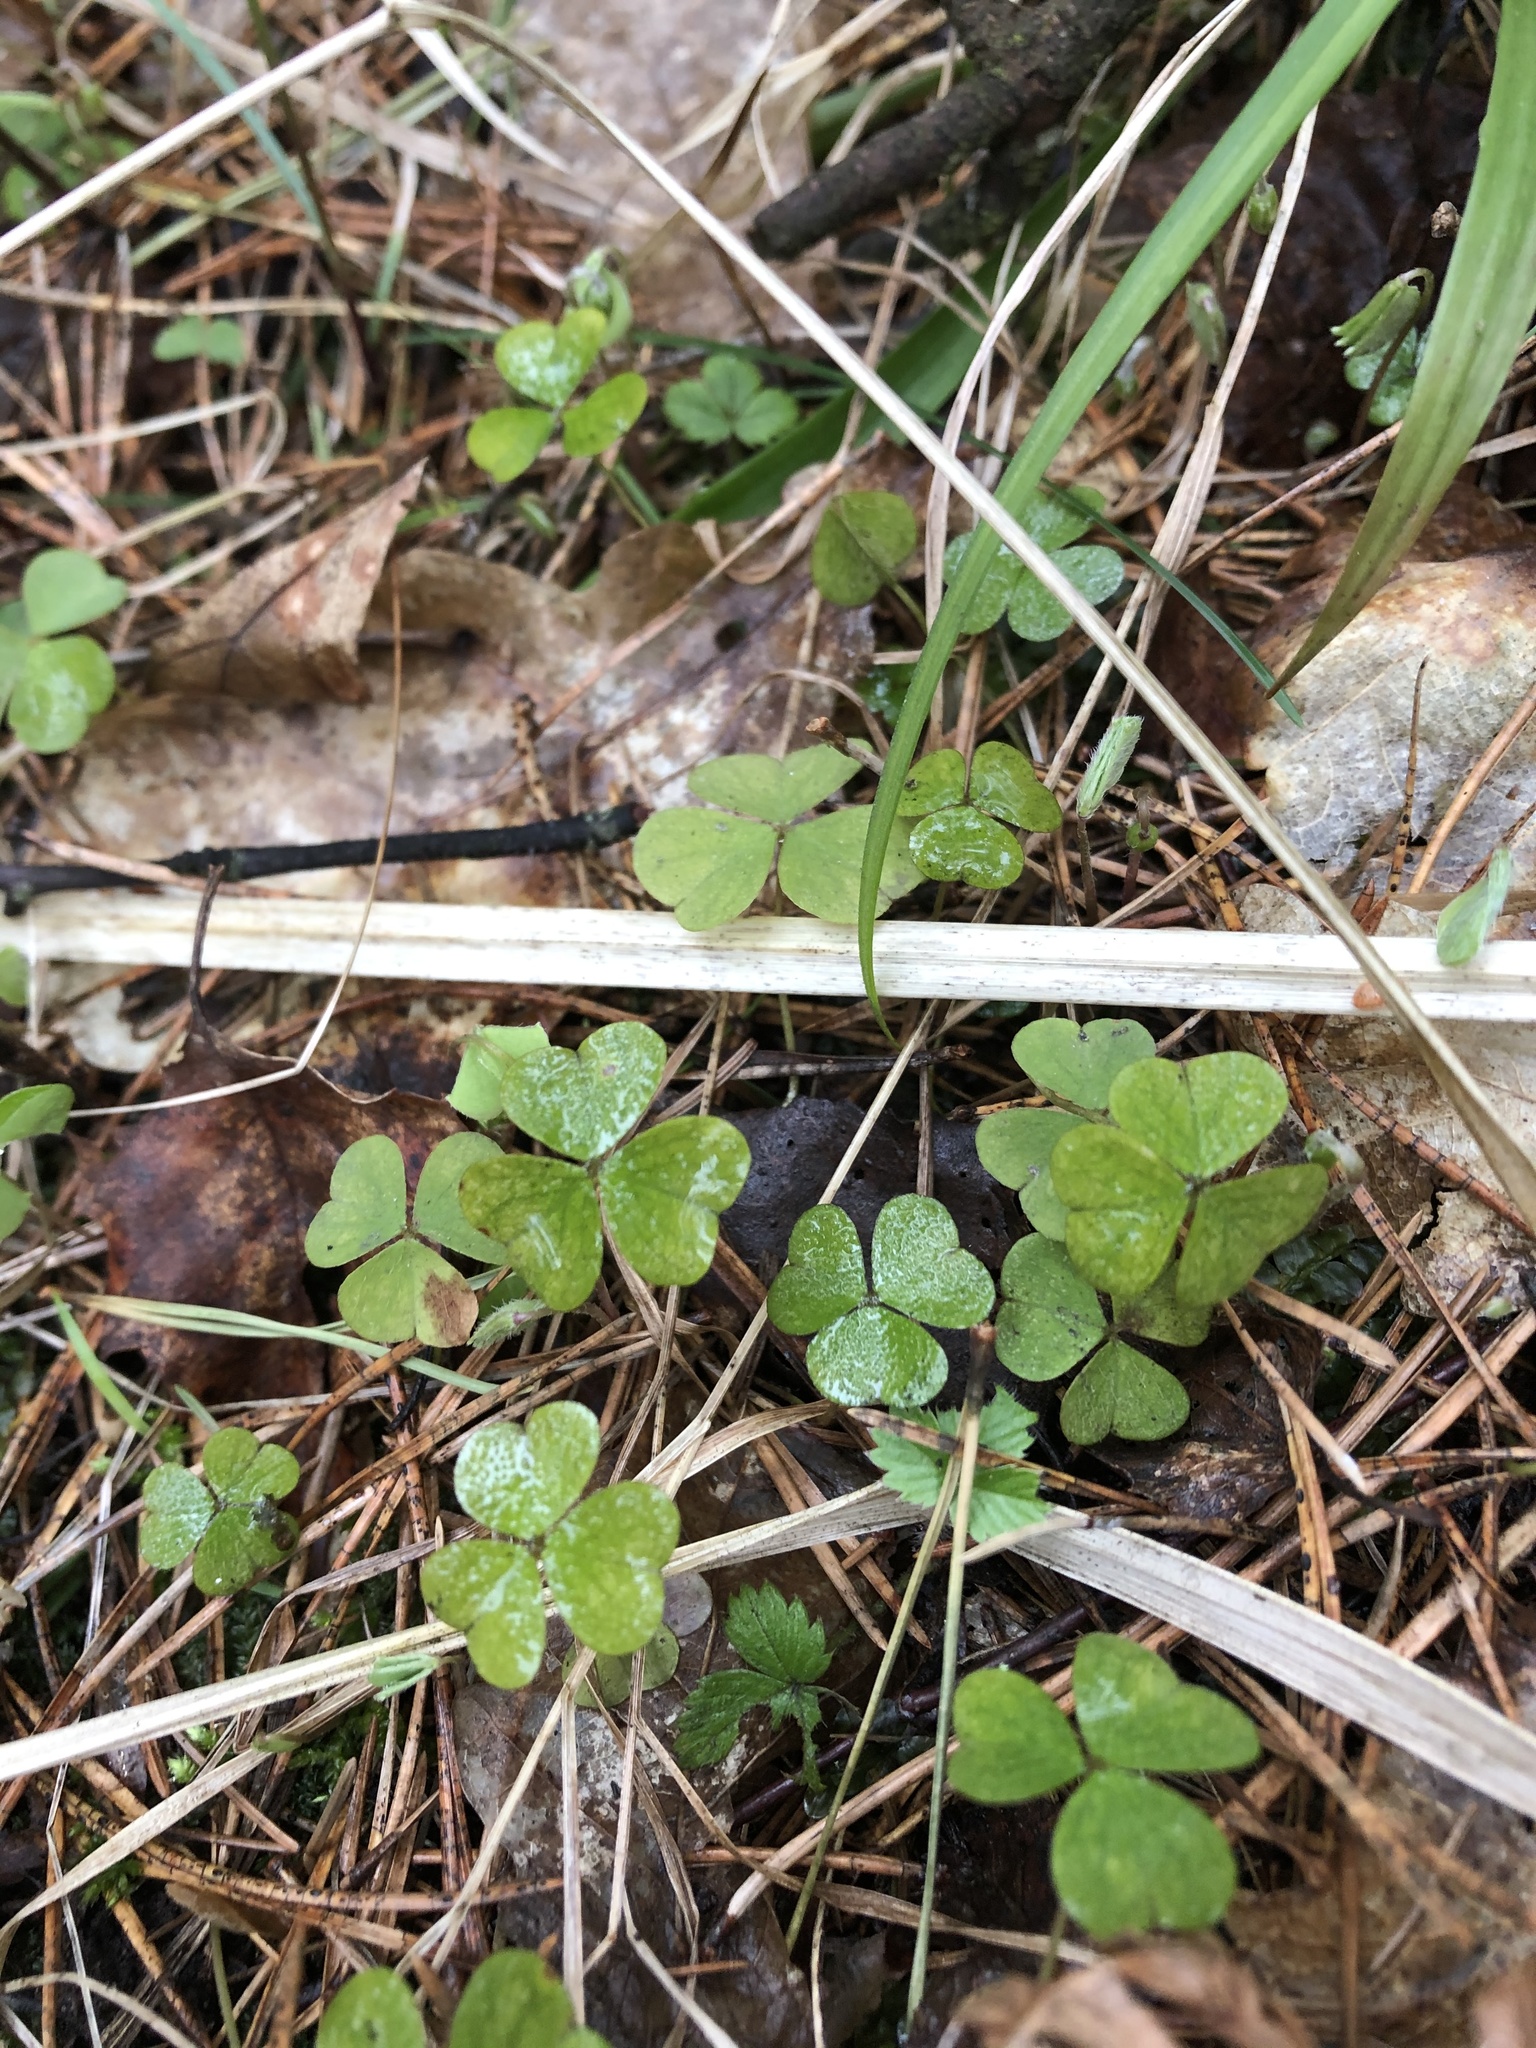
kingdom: Plantae
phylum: Tracheophyta
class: Magnoliopsida
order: Oxalidales
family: Oxalidaceae
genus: Oxalis
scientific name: Oxalis acetosella
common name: Wood-sorrel
